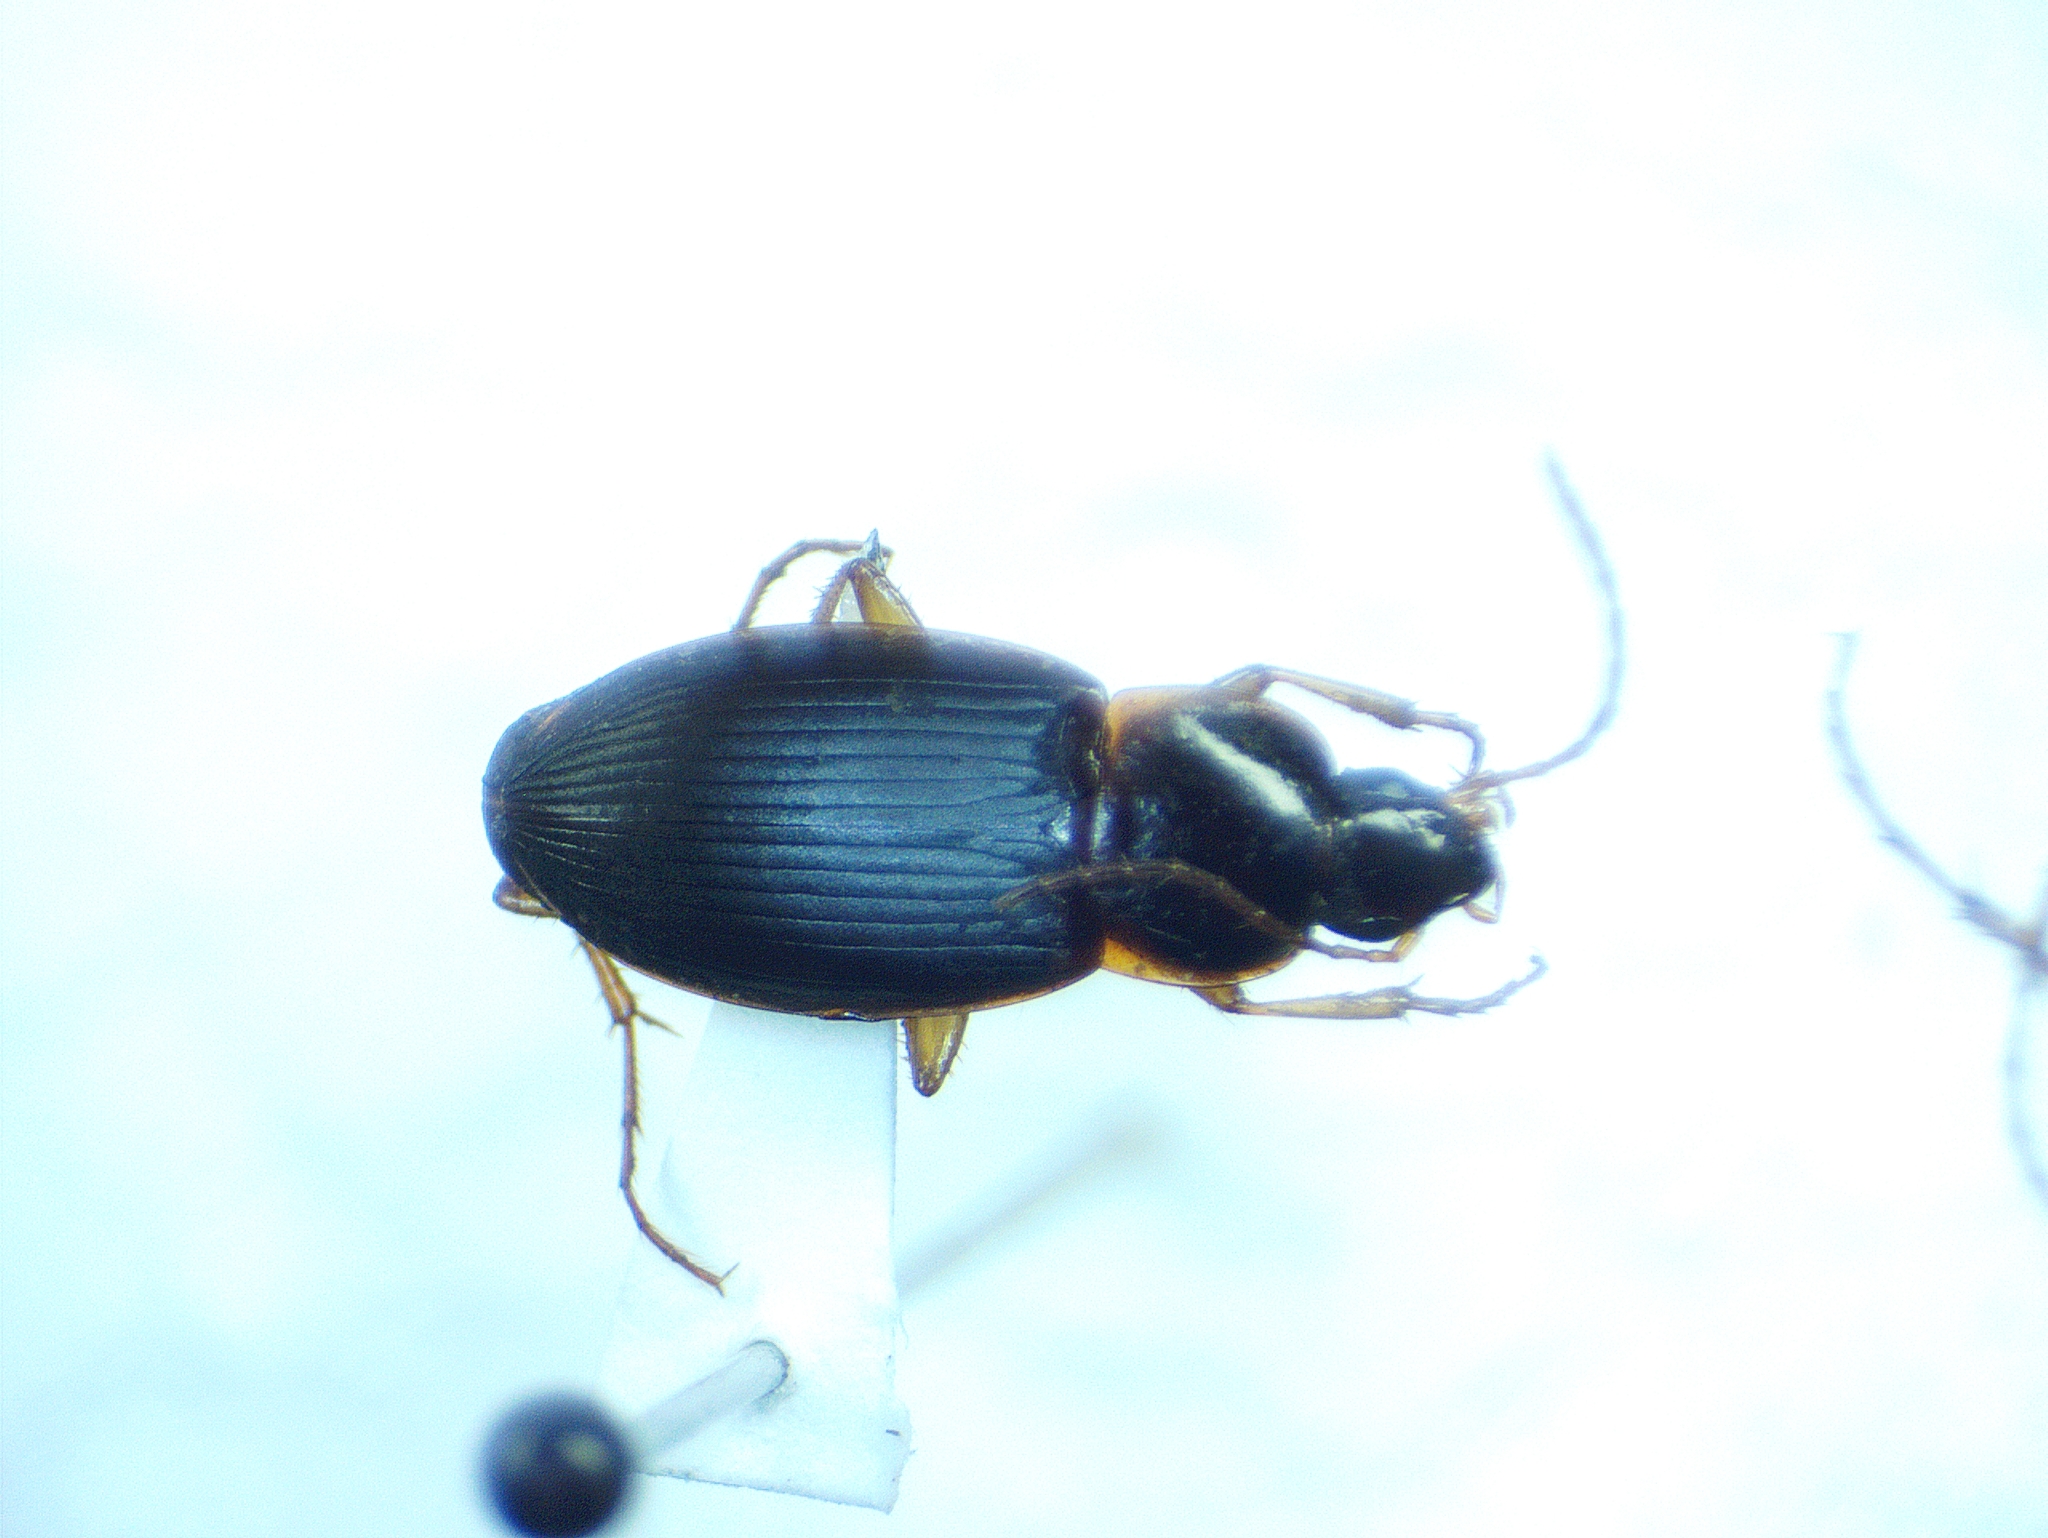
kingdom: Animalia
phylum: Arthropoda
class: Insecta
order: Coleoptera
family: Carabidae
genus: Calathus
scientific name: Calathus opaculus
